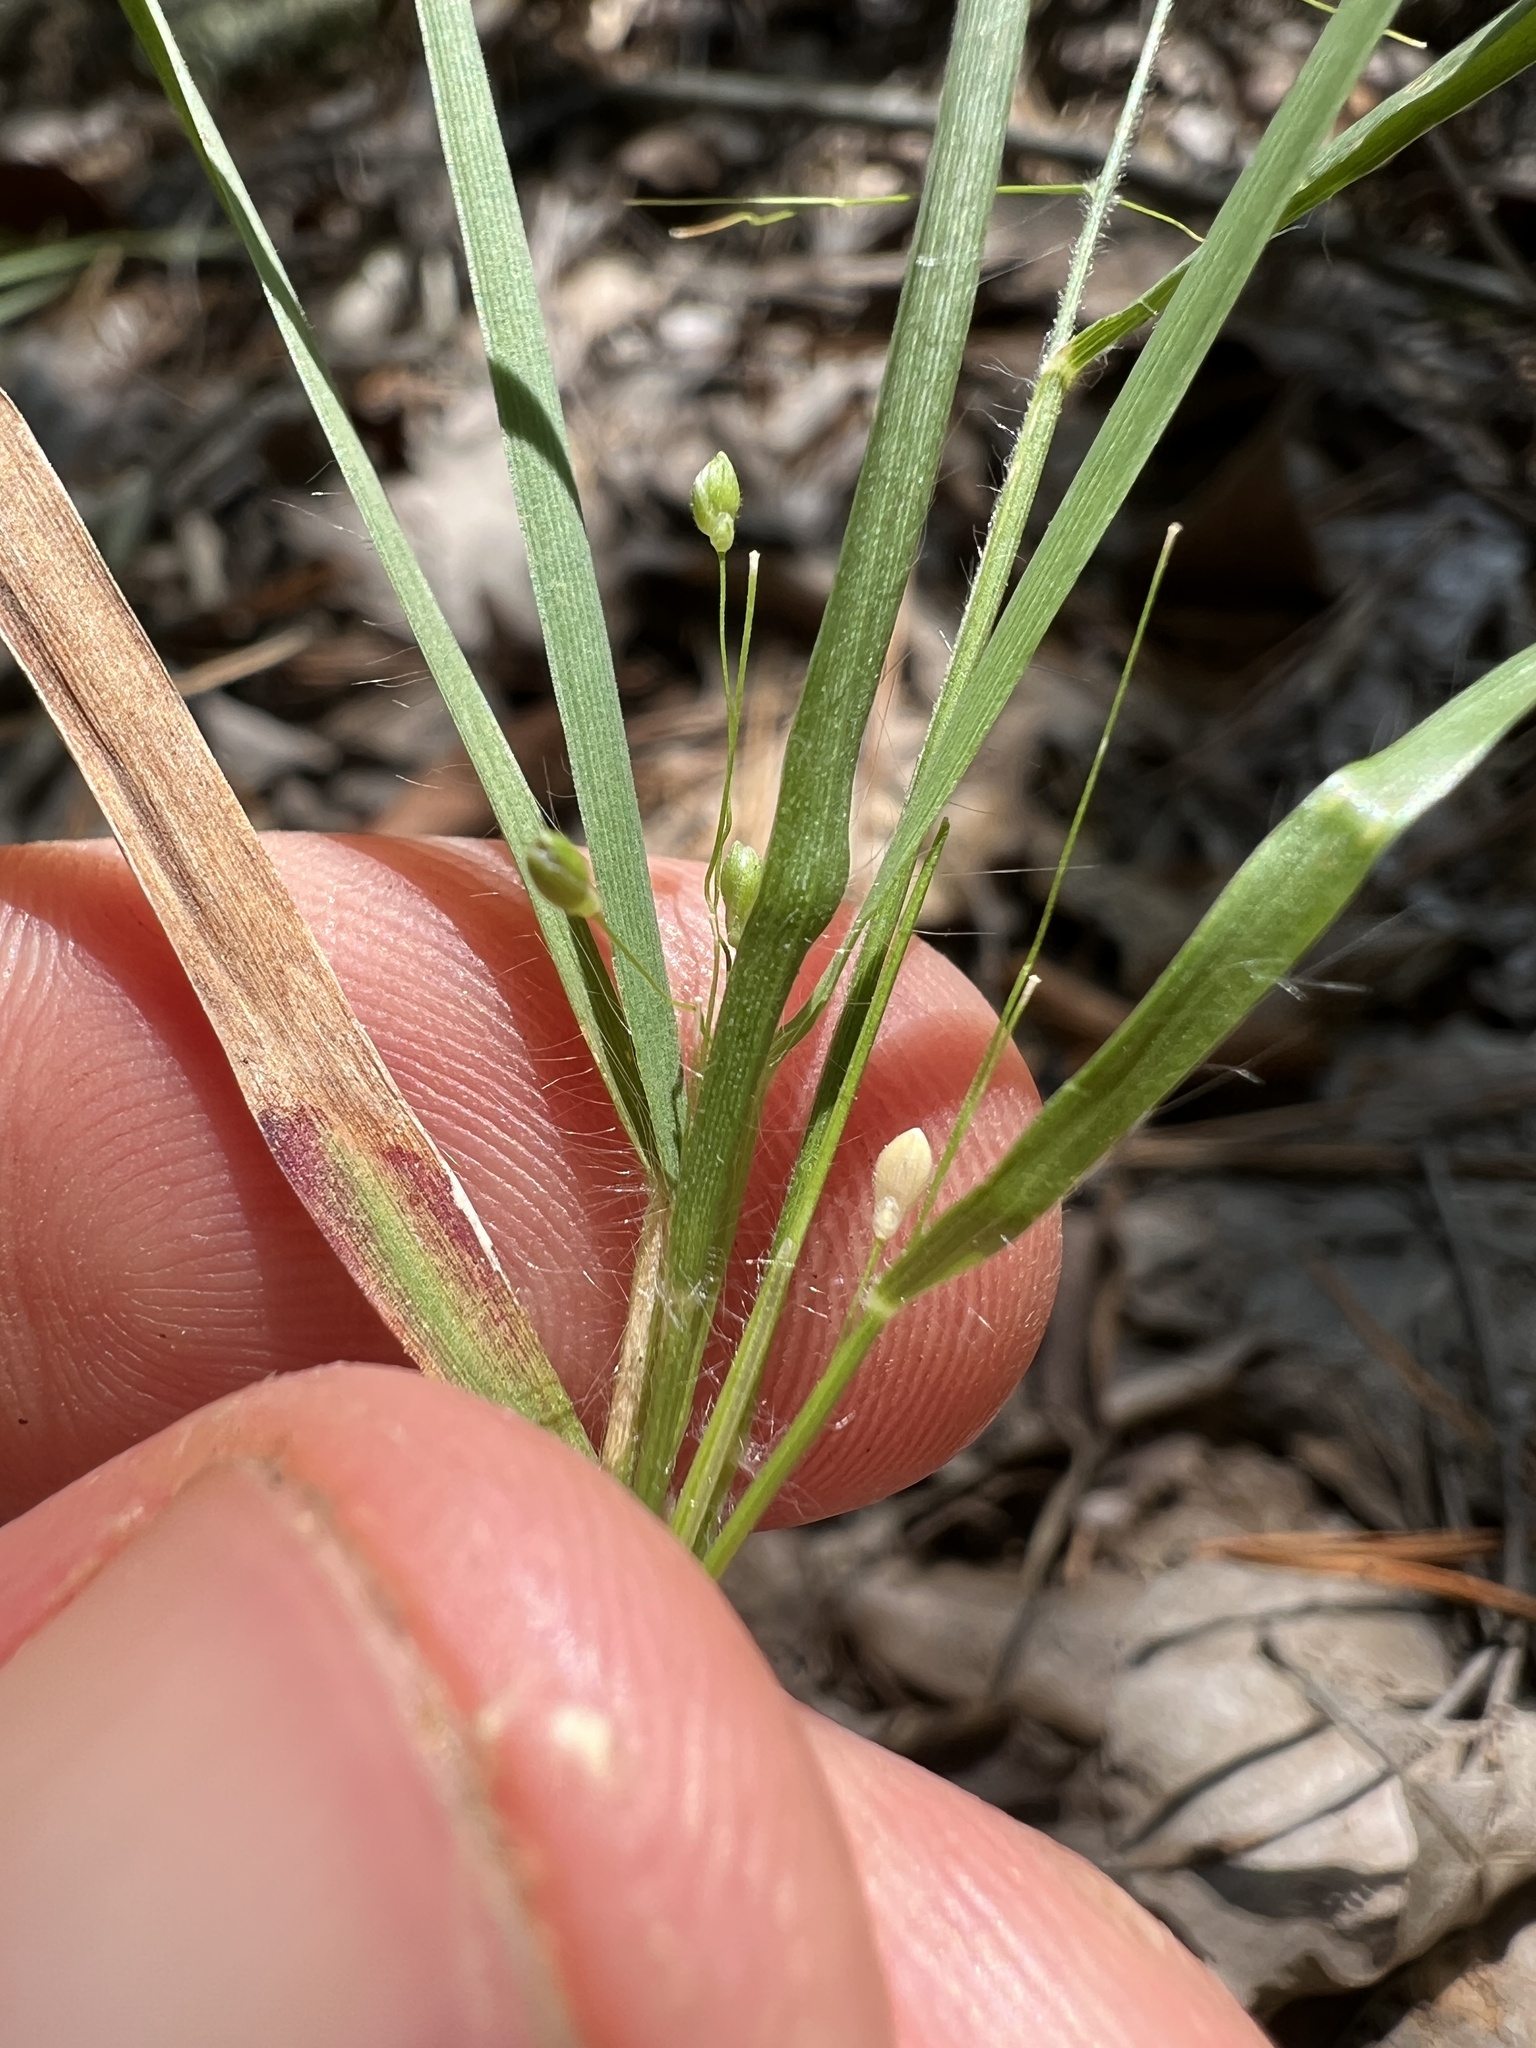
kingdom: Plantae
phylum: Tracheophyta
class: Liliopsida
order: Poales
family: Poaceae
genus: Dichanthelium
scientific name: Dichanthelium bicknellii
